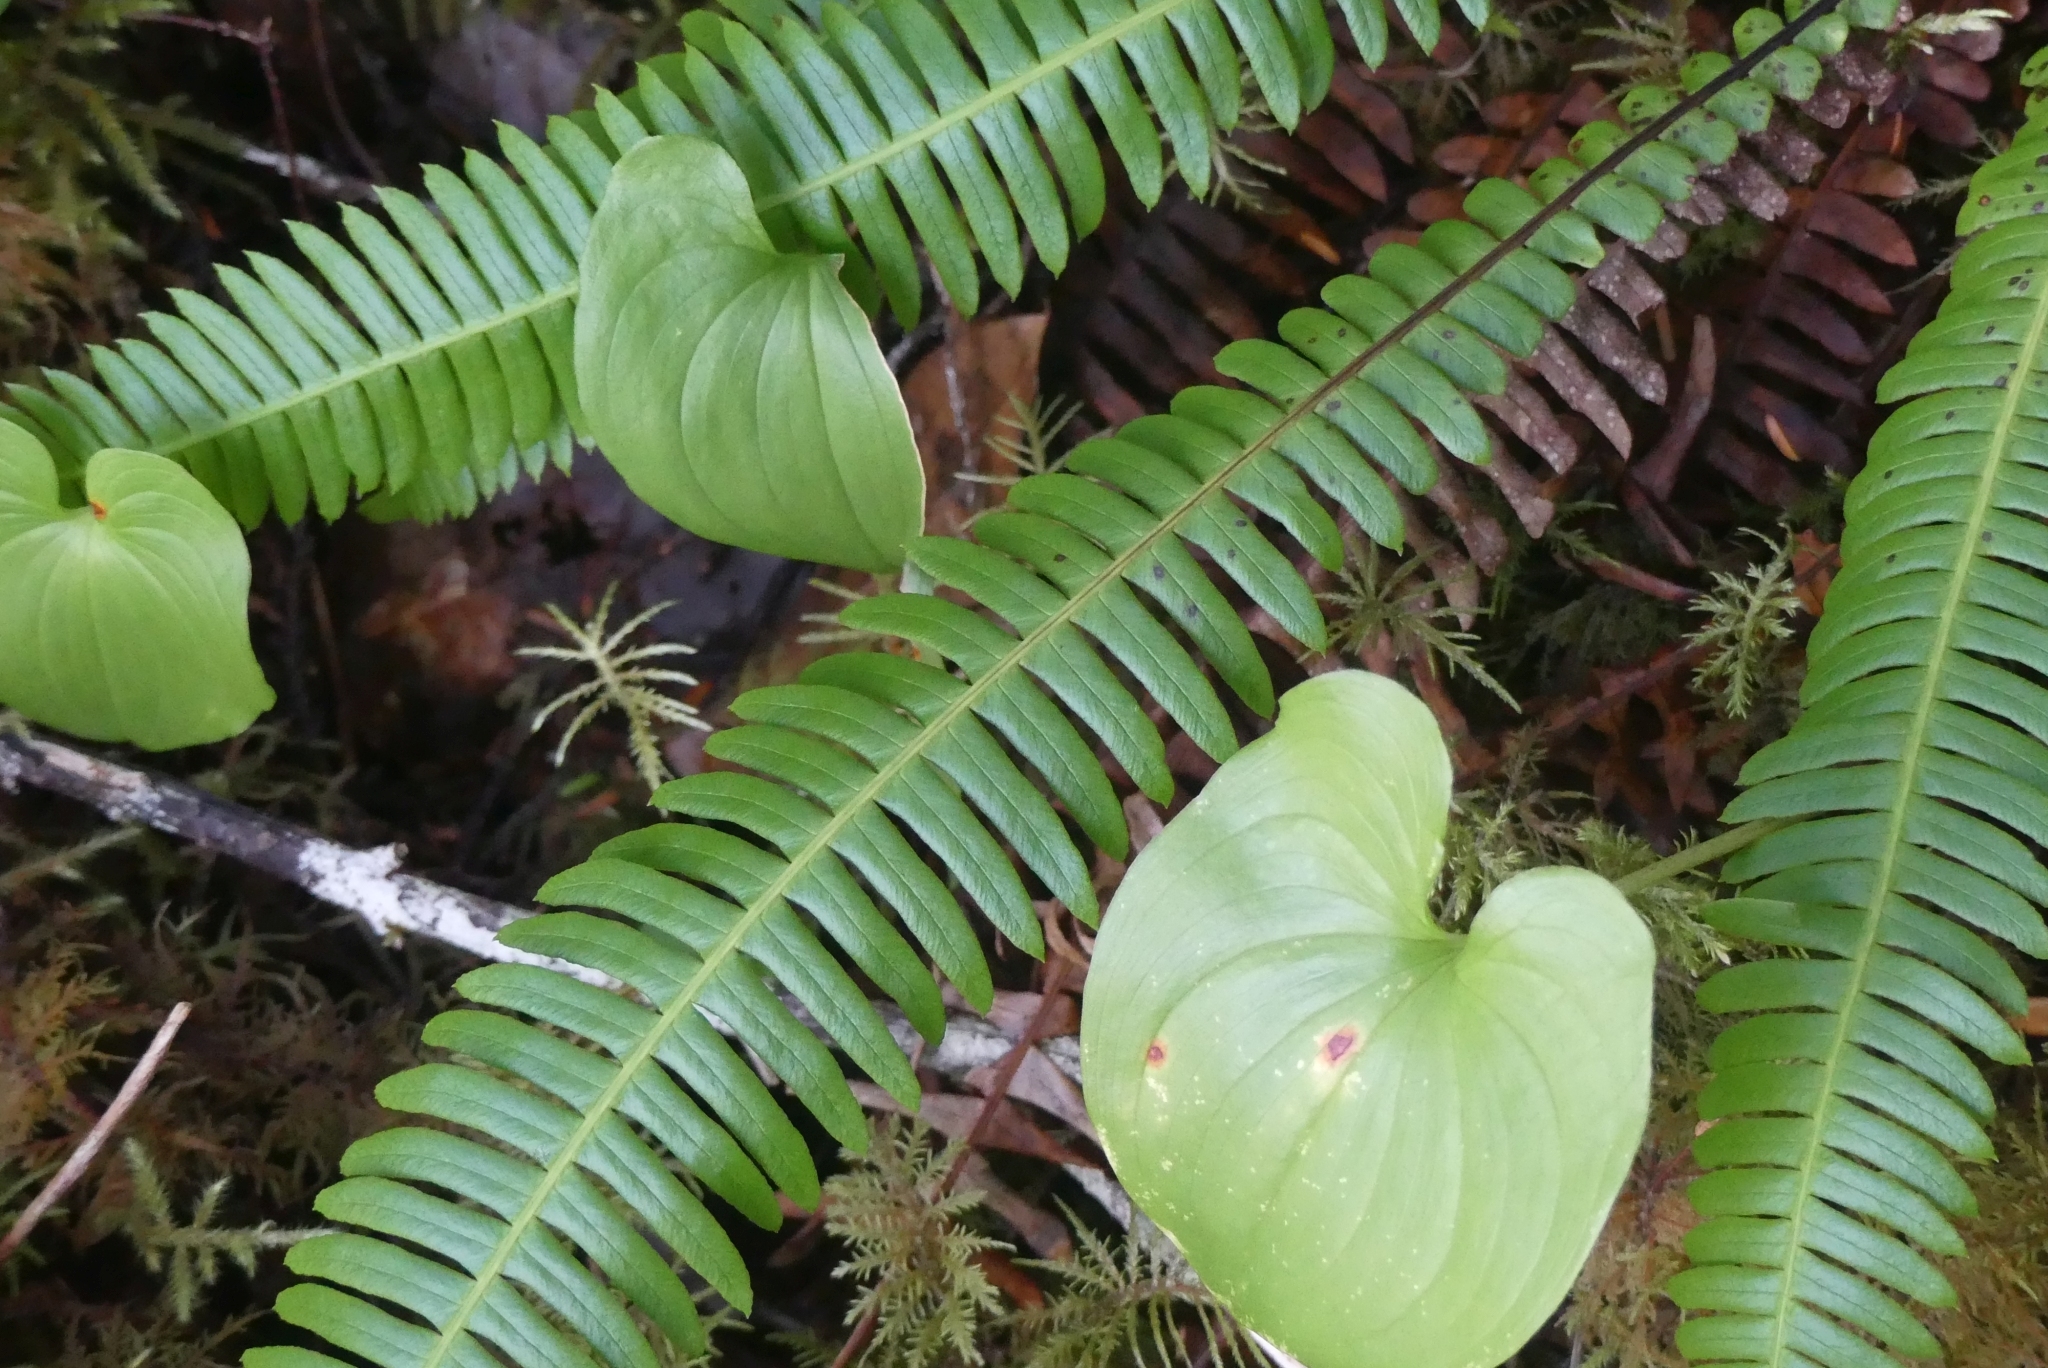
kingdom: Plantae
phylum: Tracheophyta
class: Polypodiopsida
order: Polypodiales
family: Blechnaceae
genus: Struthiopteris
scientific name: Struthiopteris spicant
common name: Deer fern
